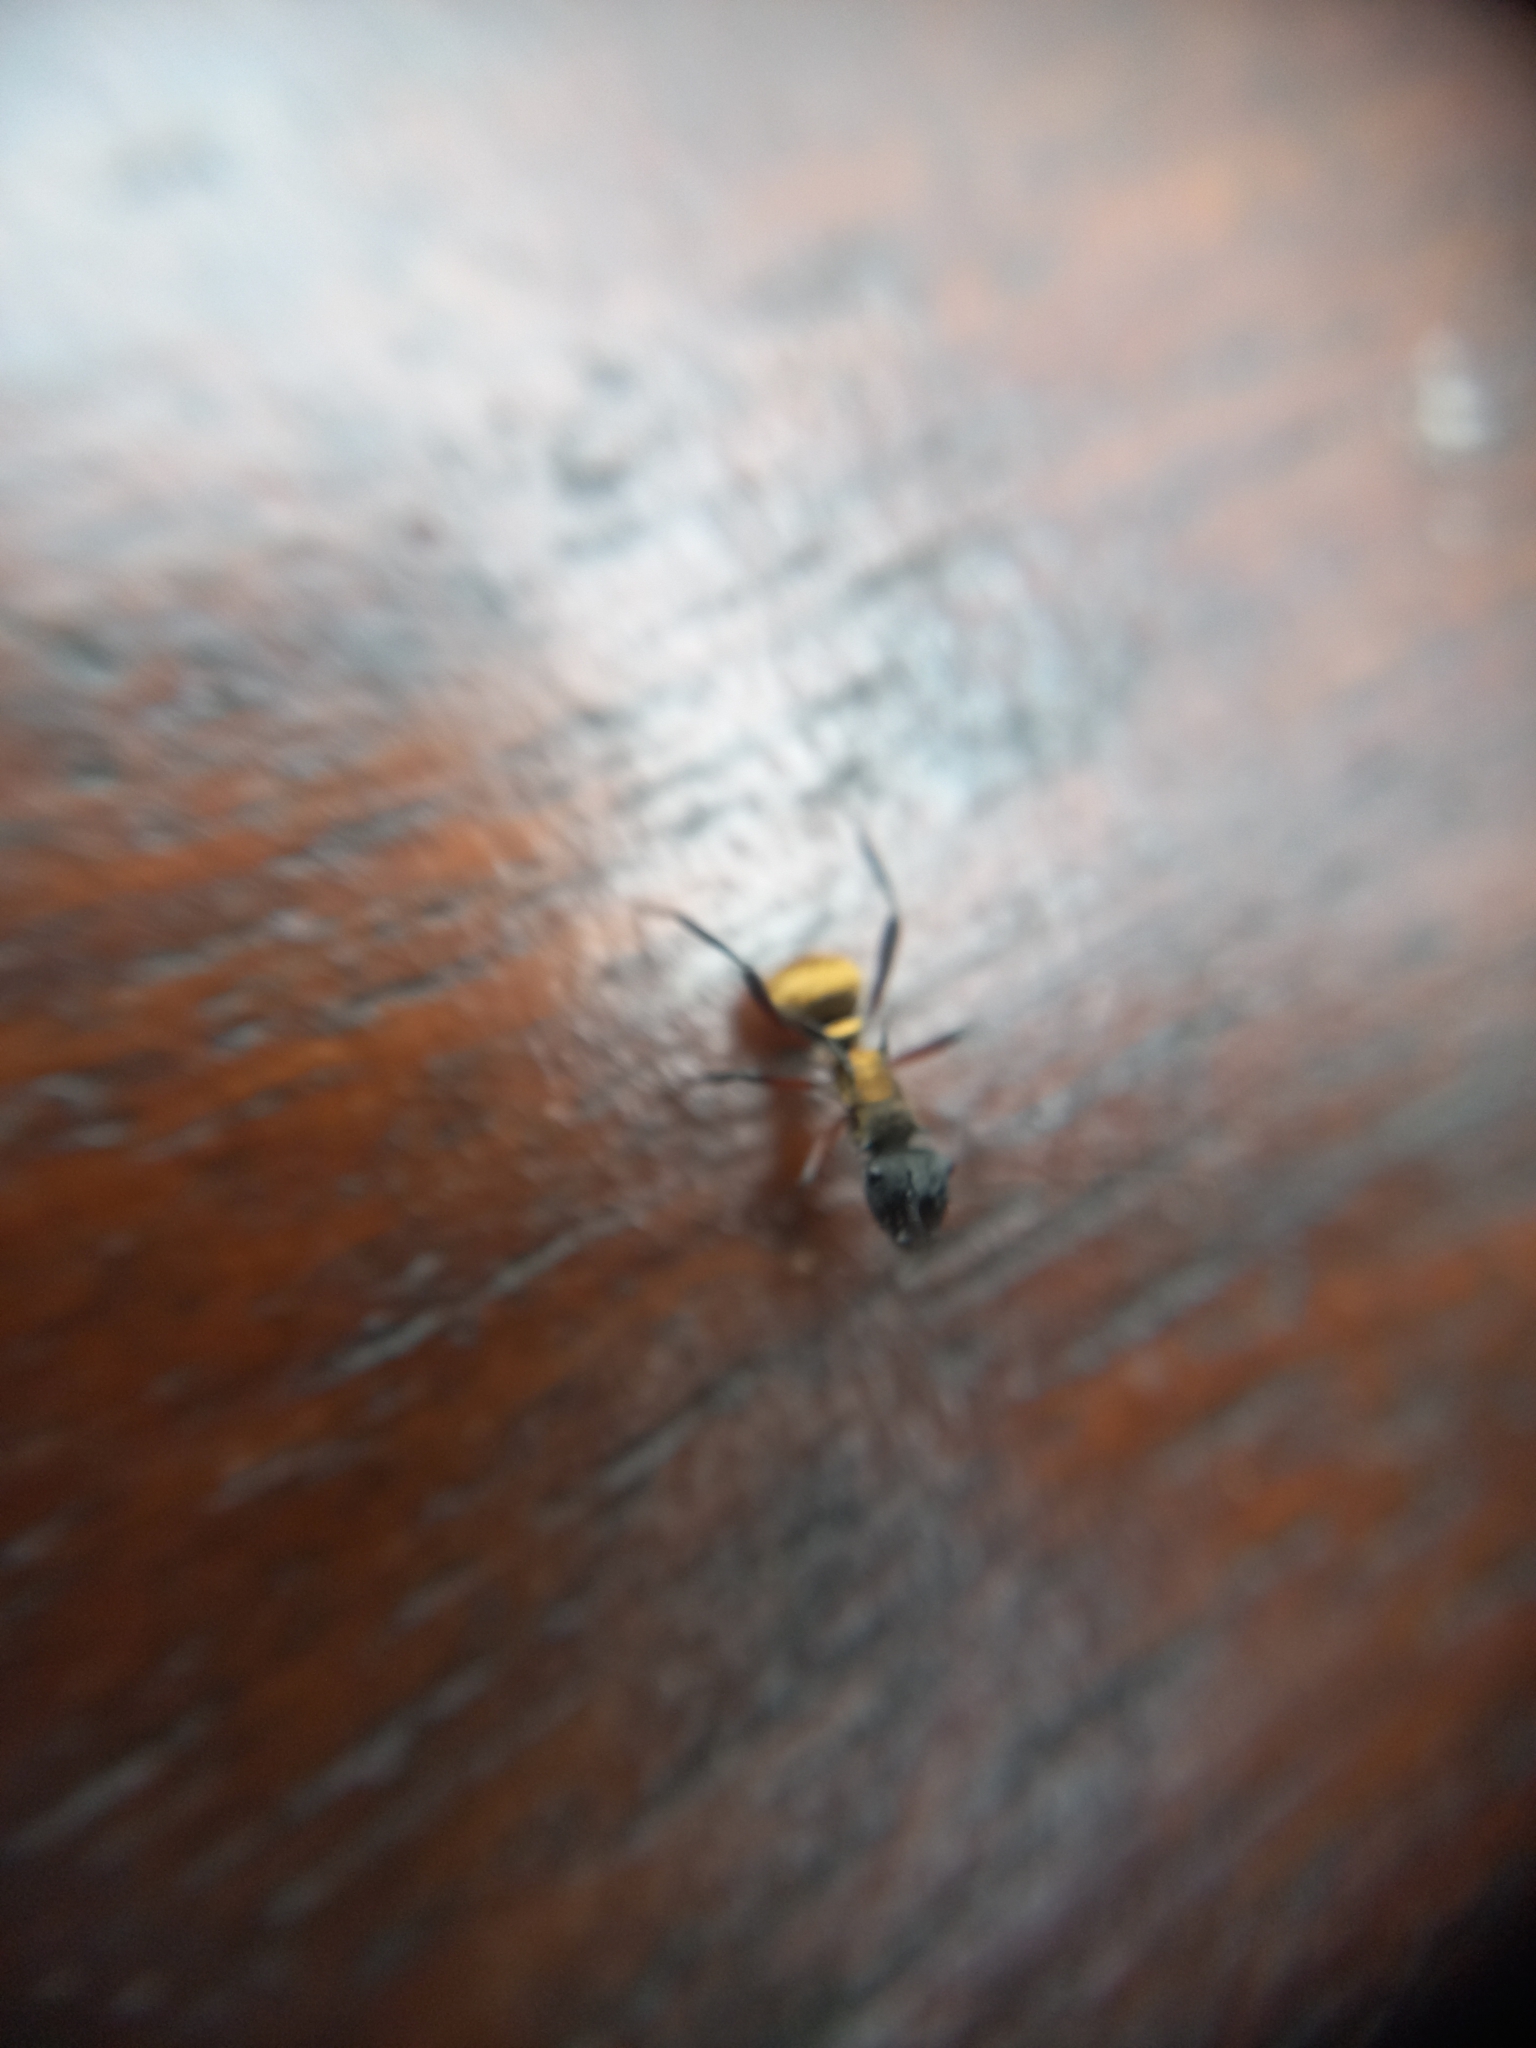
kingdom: Animalia
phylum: Arthropoda
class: Insecta
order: Hymenoptera
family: Formicidae
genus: Polyrhachis
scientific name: Polyrhachis rufifemur
